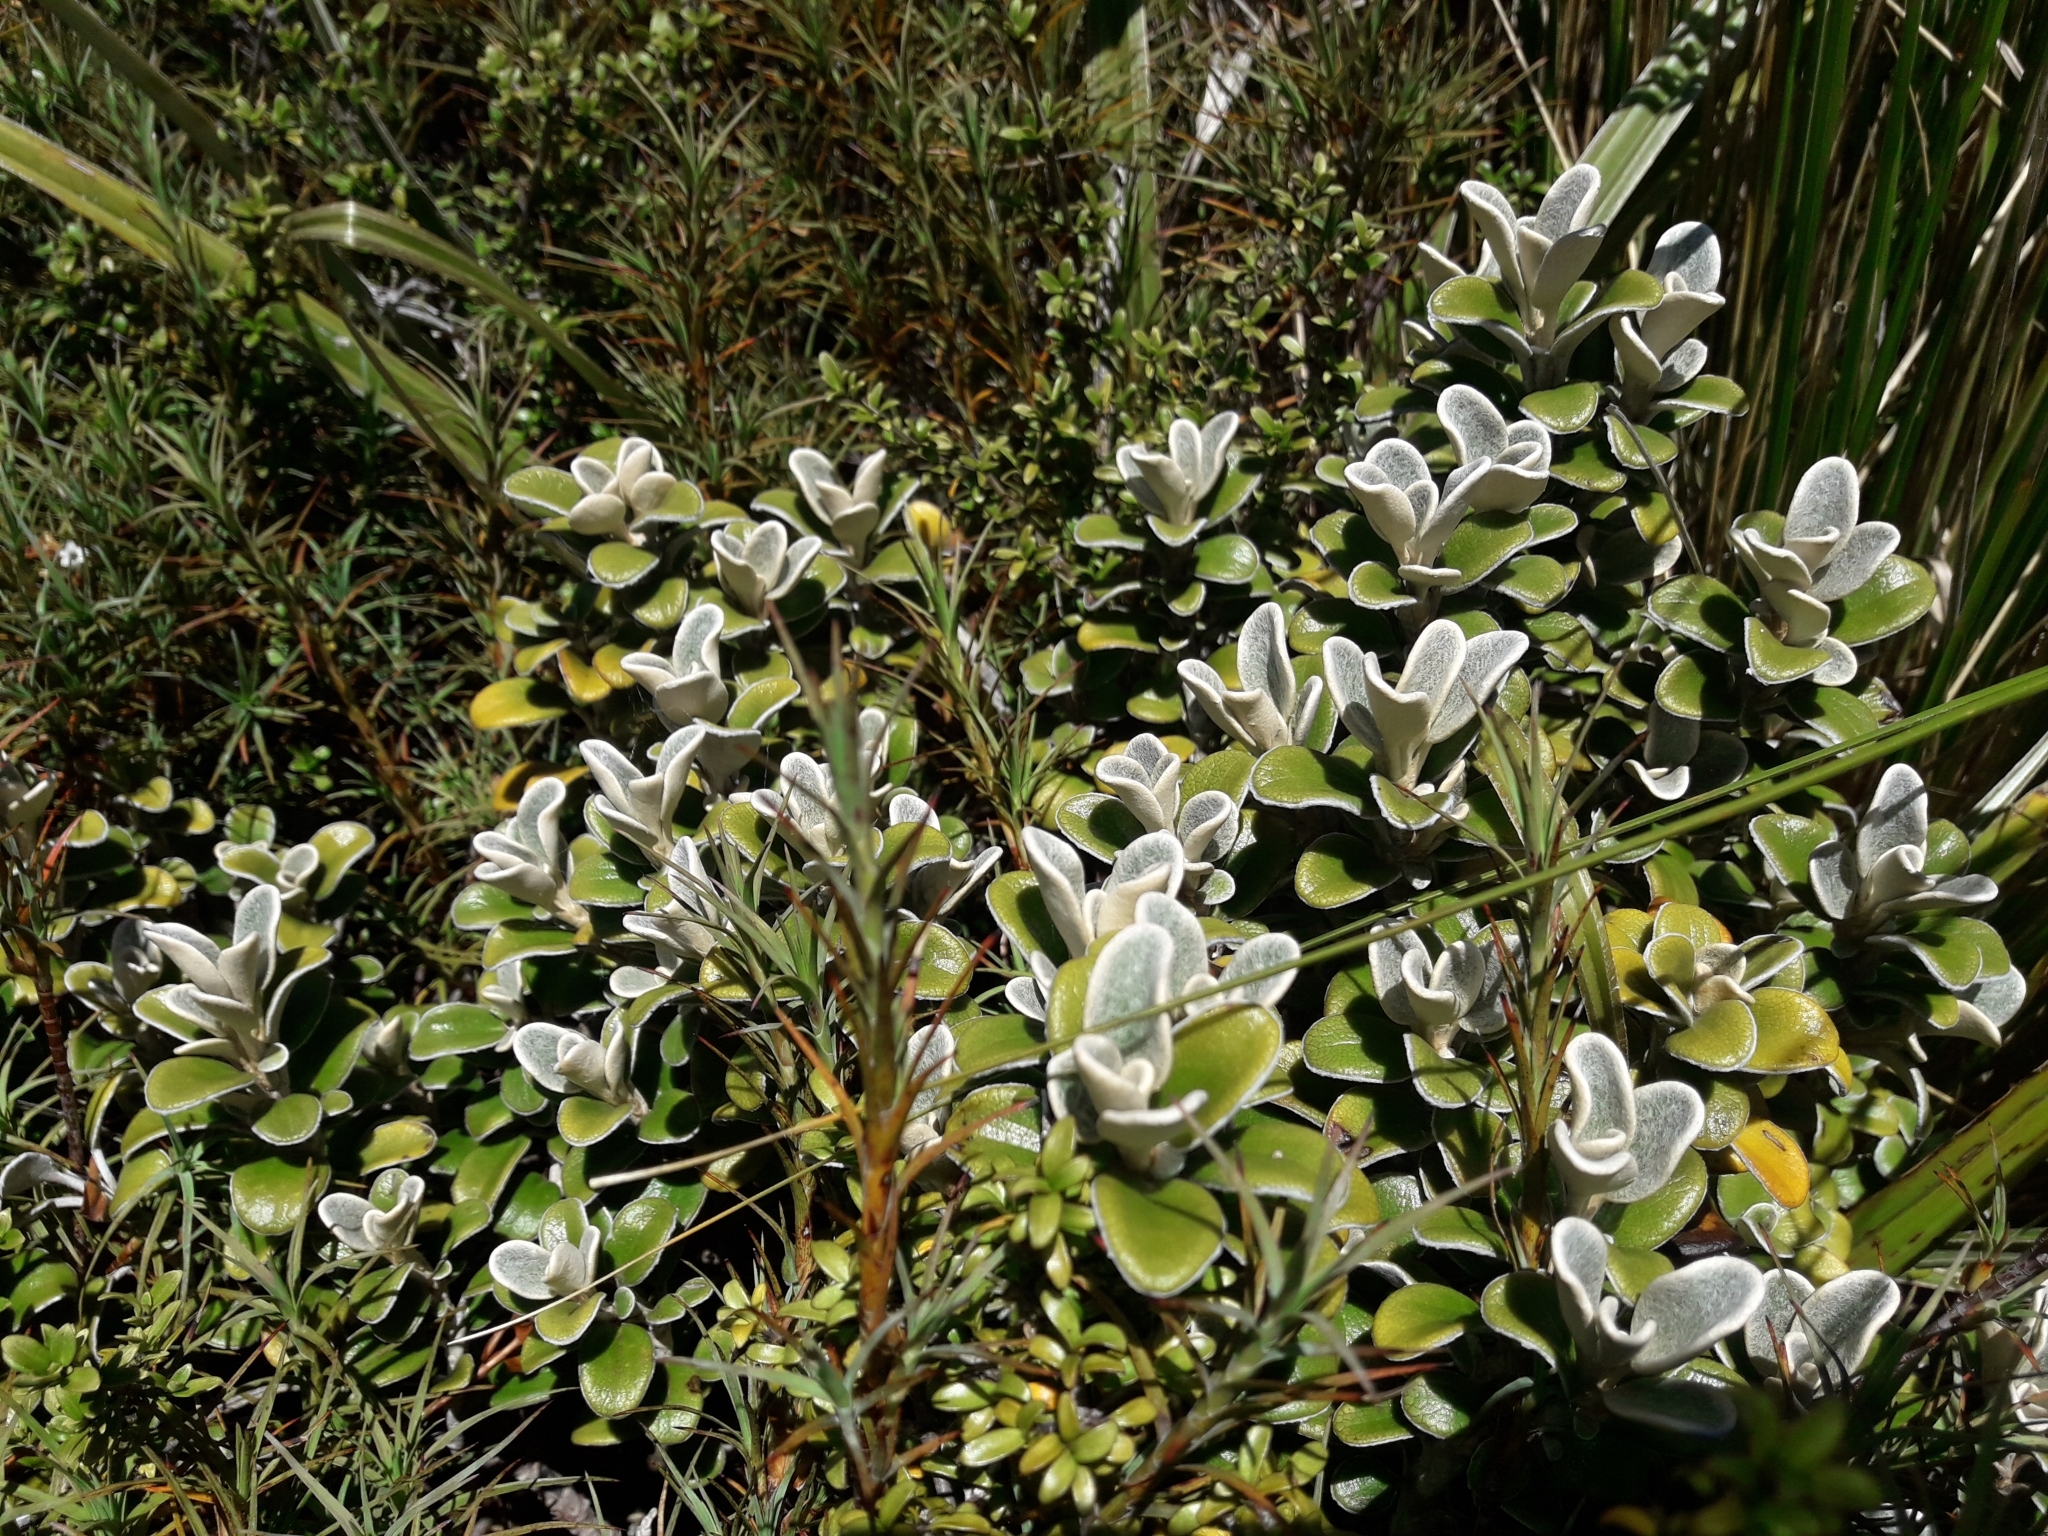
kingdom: Plantae
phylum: Tracheophyta
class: Magnoliopsida
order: Asterales
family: Asteraceae
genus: Brachyglottis
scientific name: Brachyglottis bidwillii
